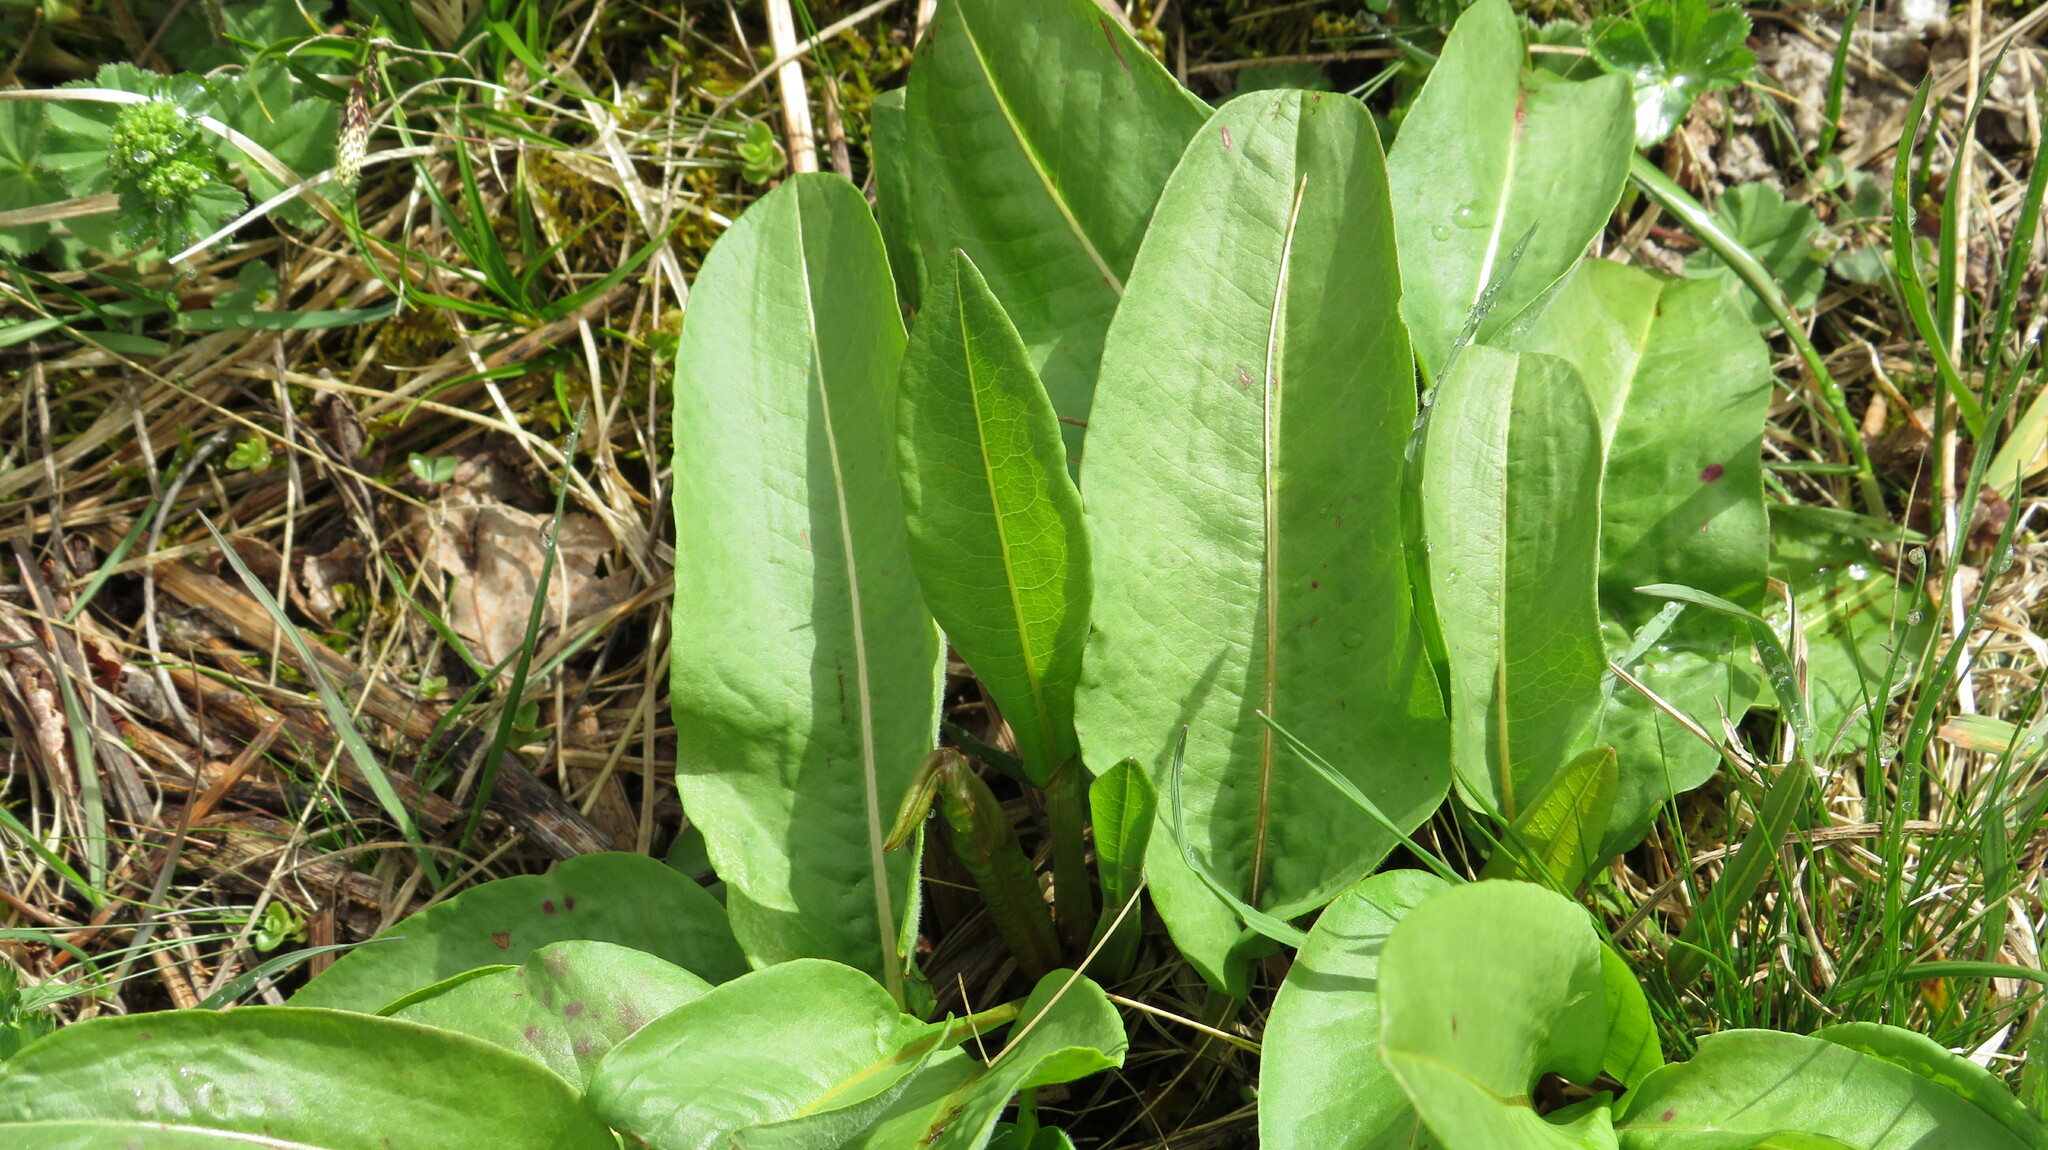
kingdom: Plantae
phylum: Tracheophyta
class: Magnoliopsida
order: Caryophyllales
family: Polygonaceae
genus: Bistorta
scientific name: Bistorta carnea
